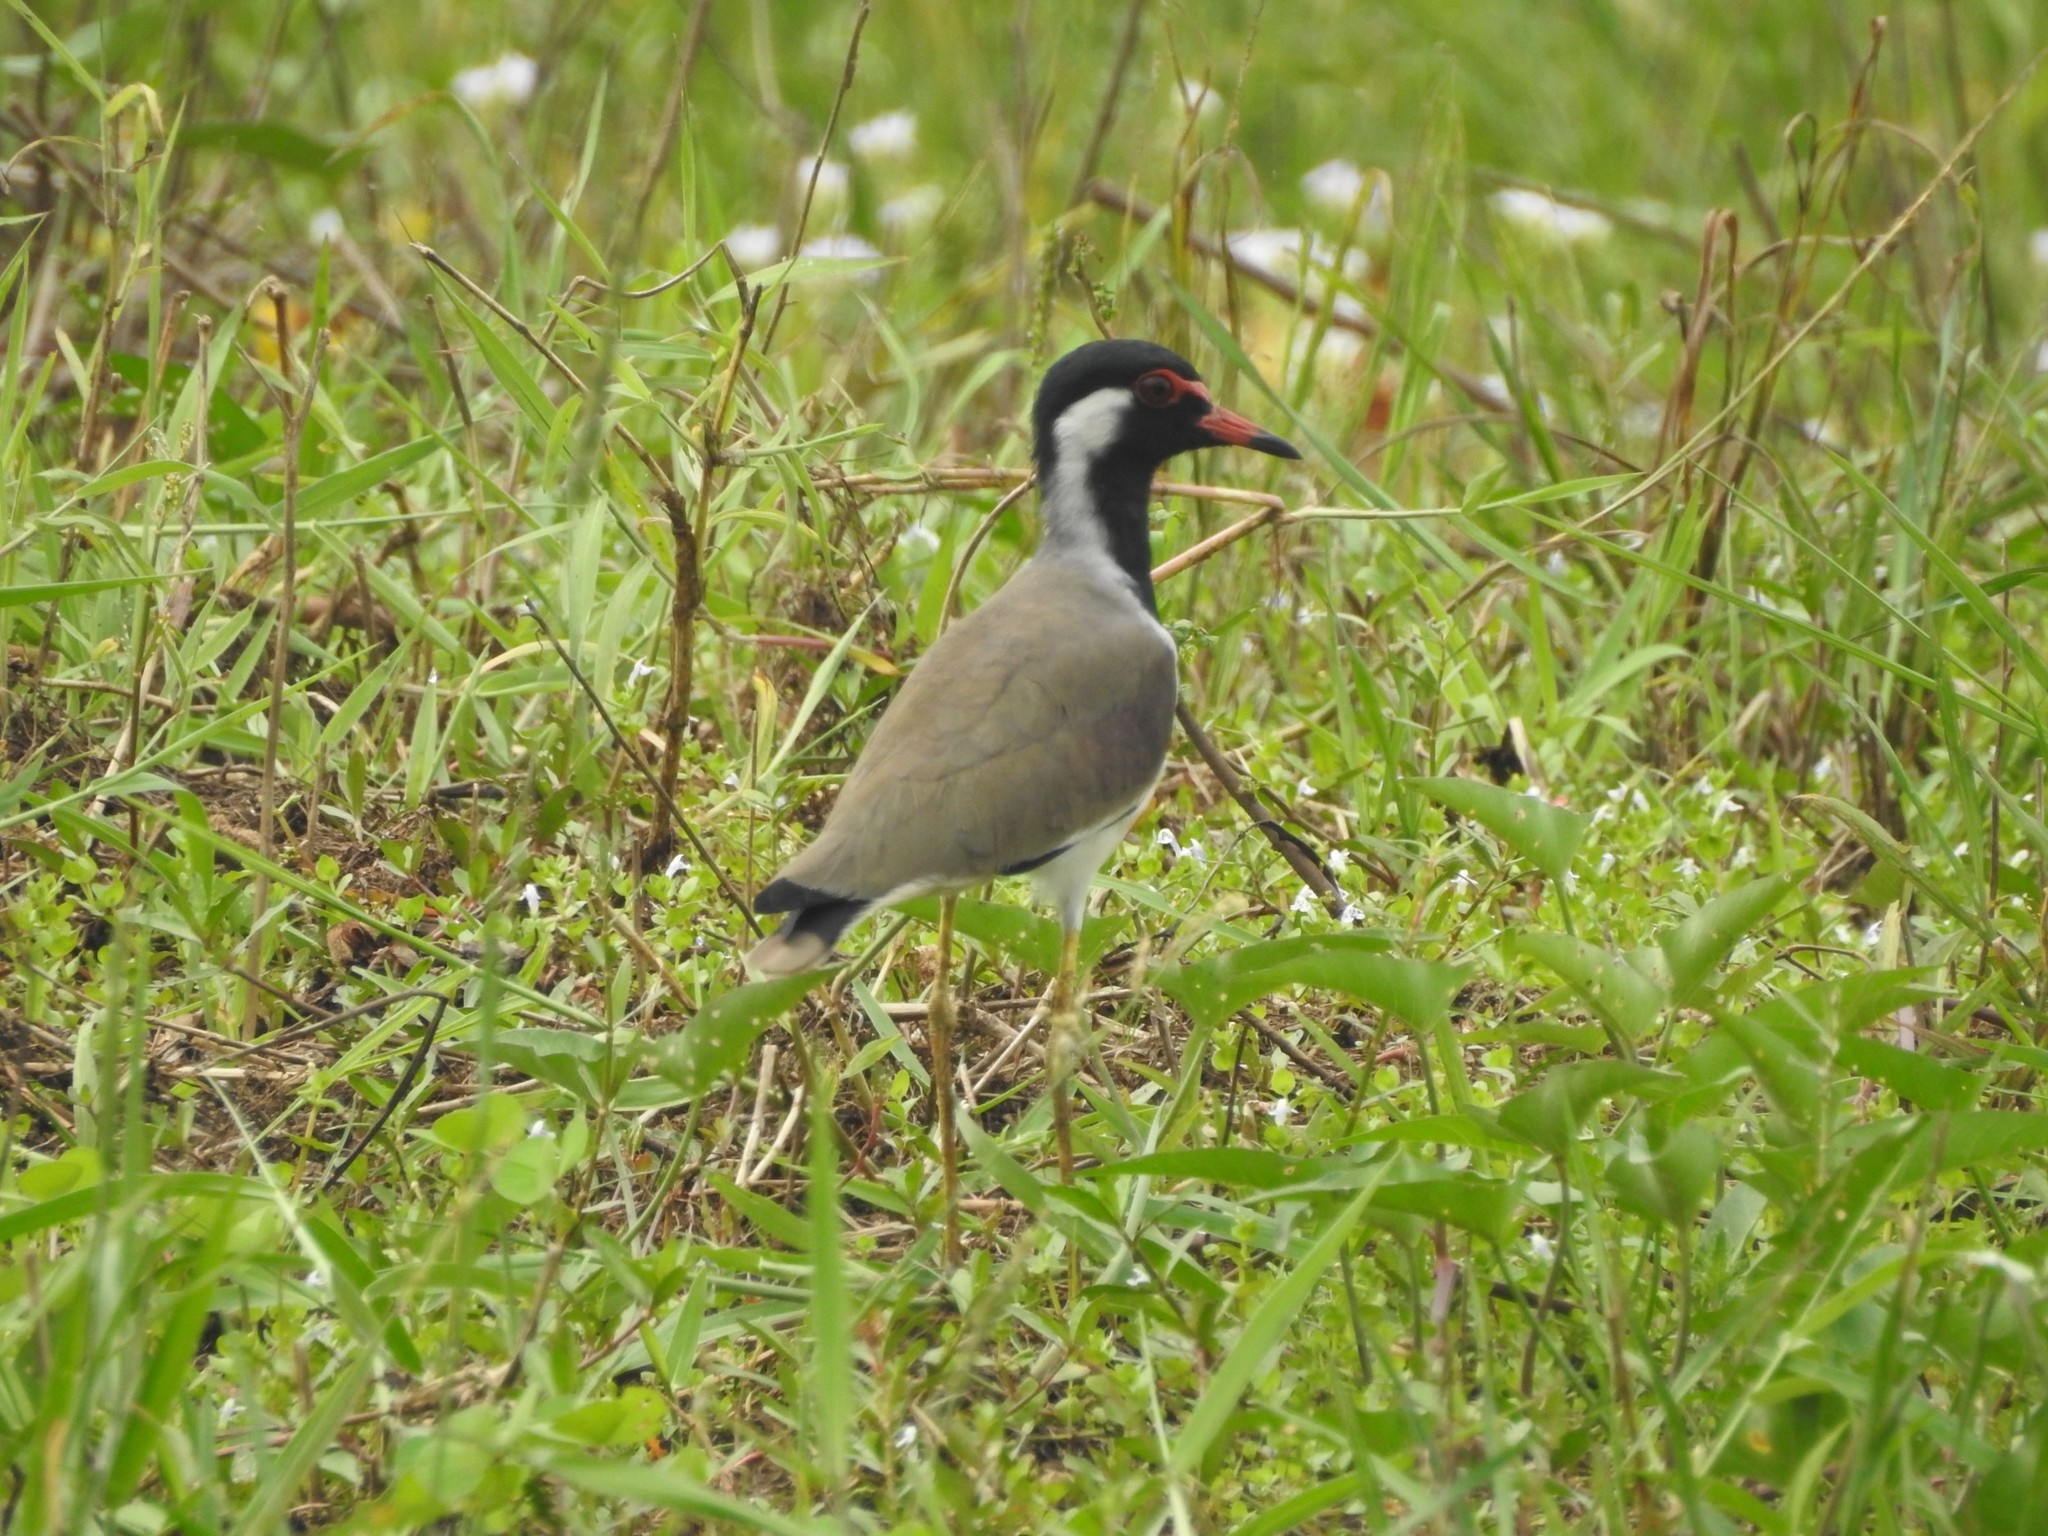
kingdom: Animalia
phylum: Chordata
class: Aves
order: Charadriiformes
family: Charadriidae
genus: Vanellus
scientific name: Vanellus indicus
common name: Red-wattled lapwing
